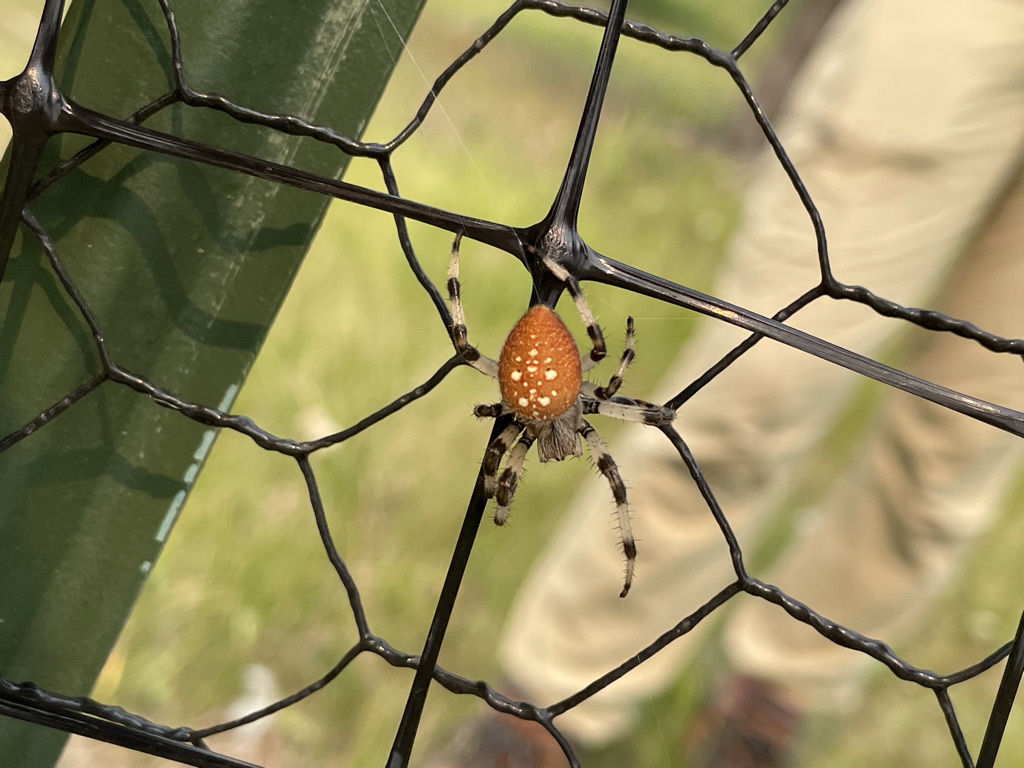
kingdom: Animalia
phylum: Arthropoda
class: Arachnida
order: Araneae
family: Araneidae
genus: Araneus
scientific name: Araneus trifolium
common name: Shamrock orbweaver
